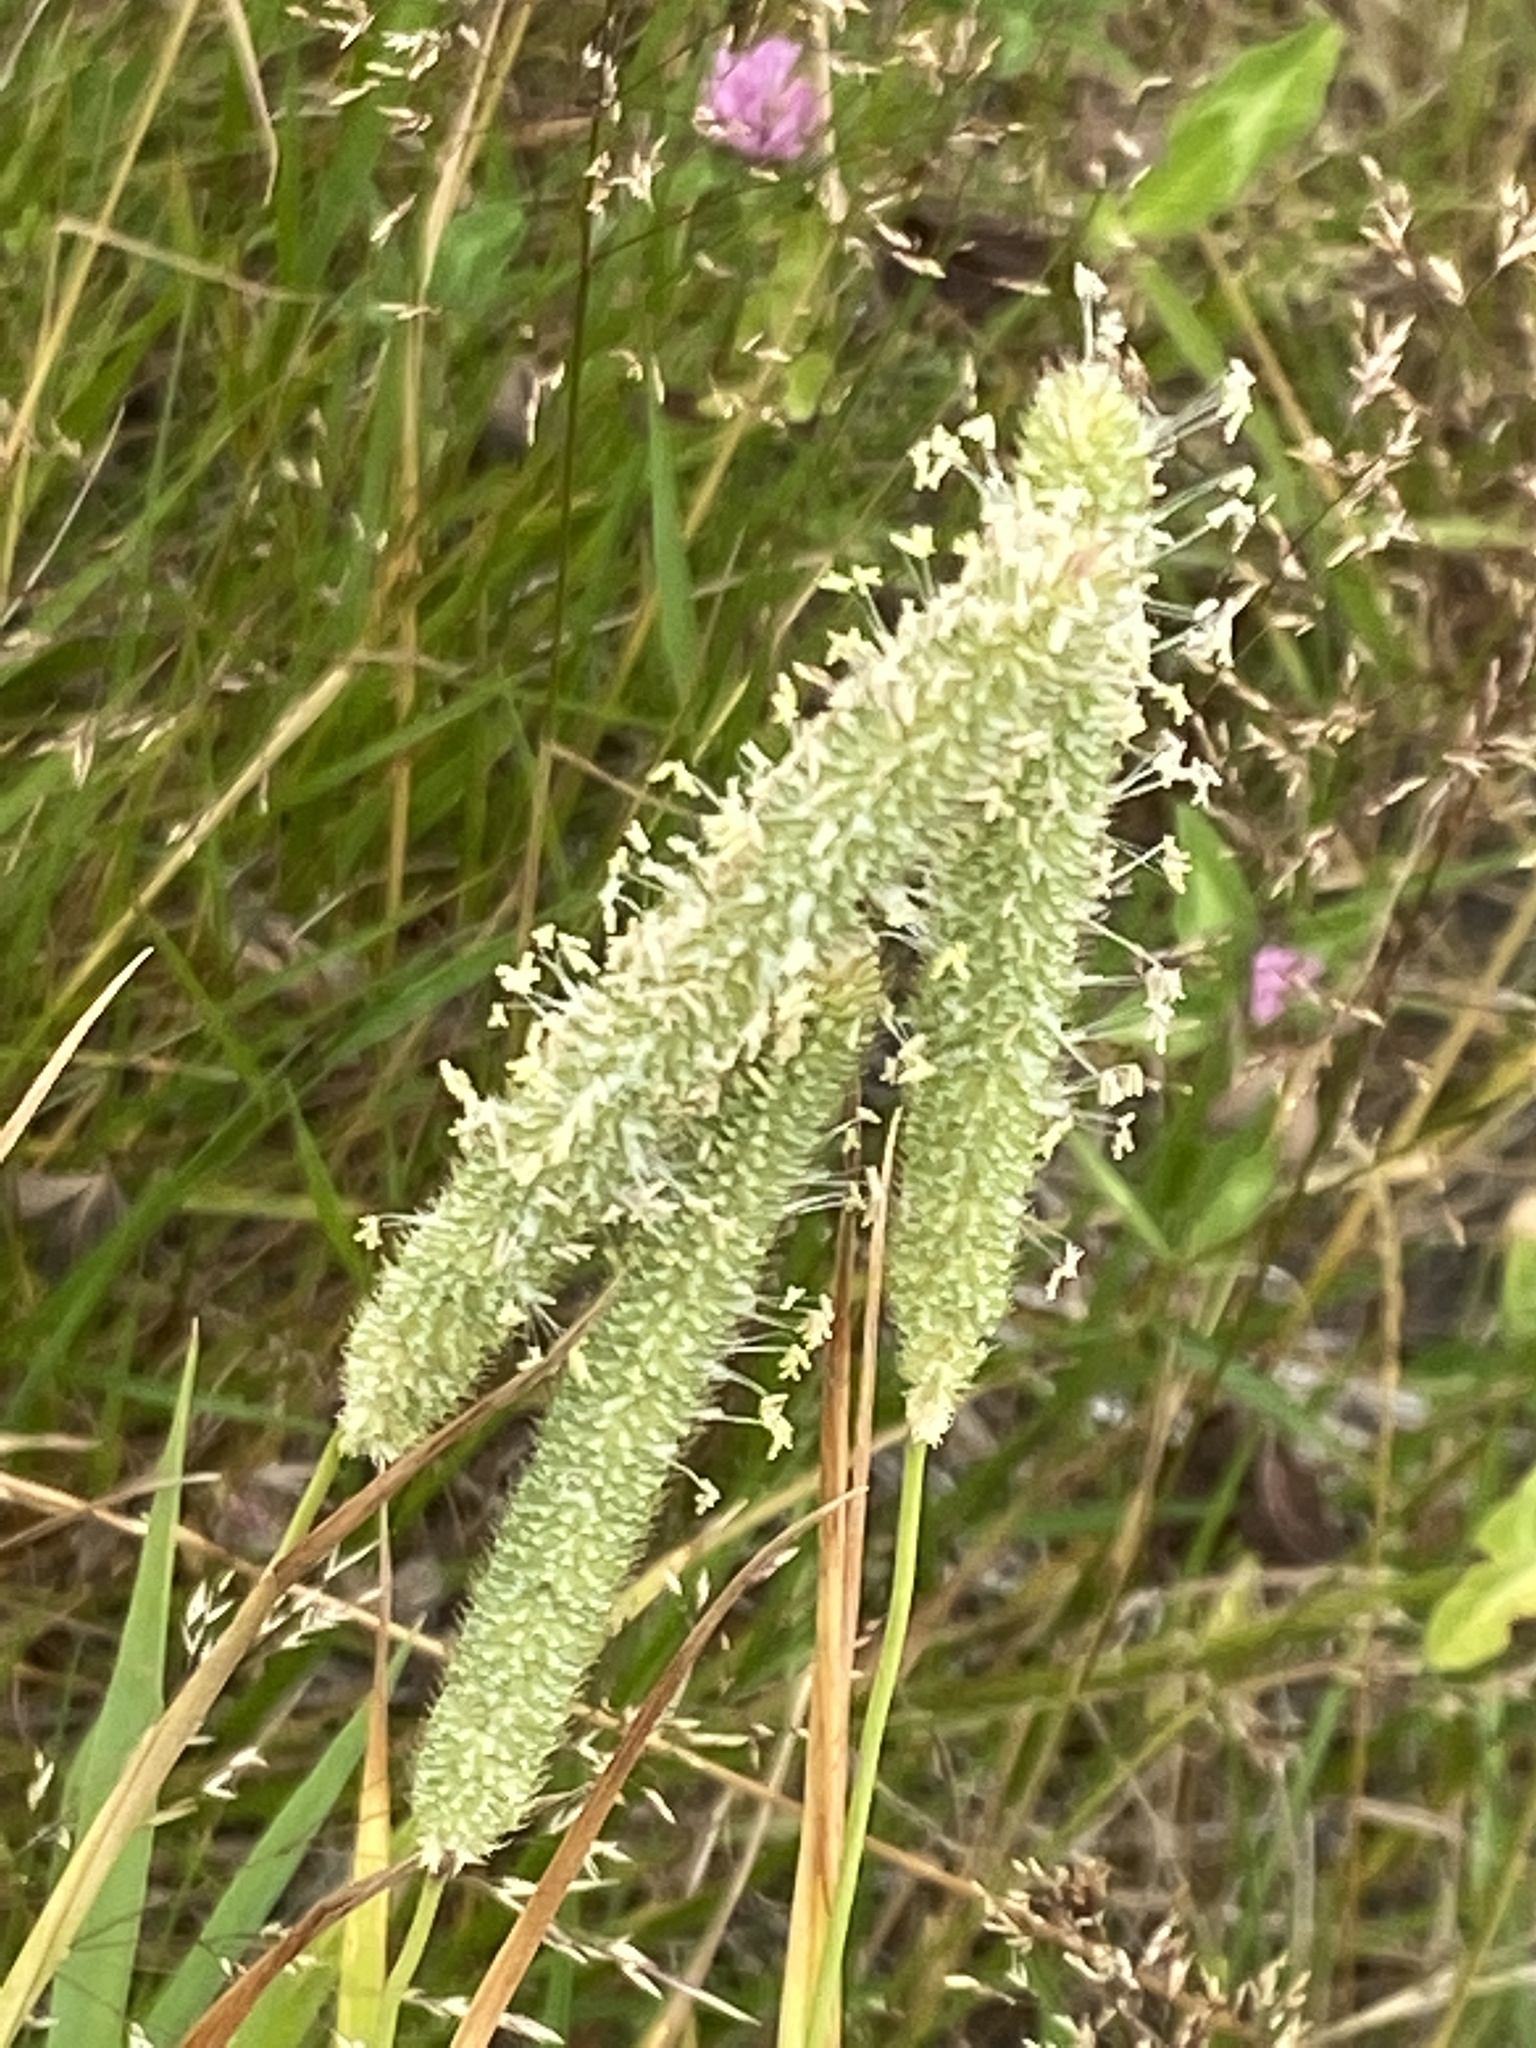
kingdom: Plantae
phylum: Tracheophyta
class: Liliopsida
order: Poales
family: Poaceae
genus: Phleum
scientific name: Phleum pratense
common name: Timothy grass
